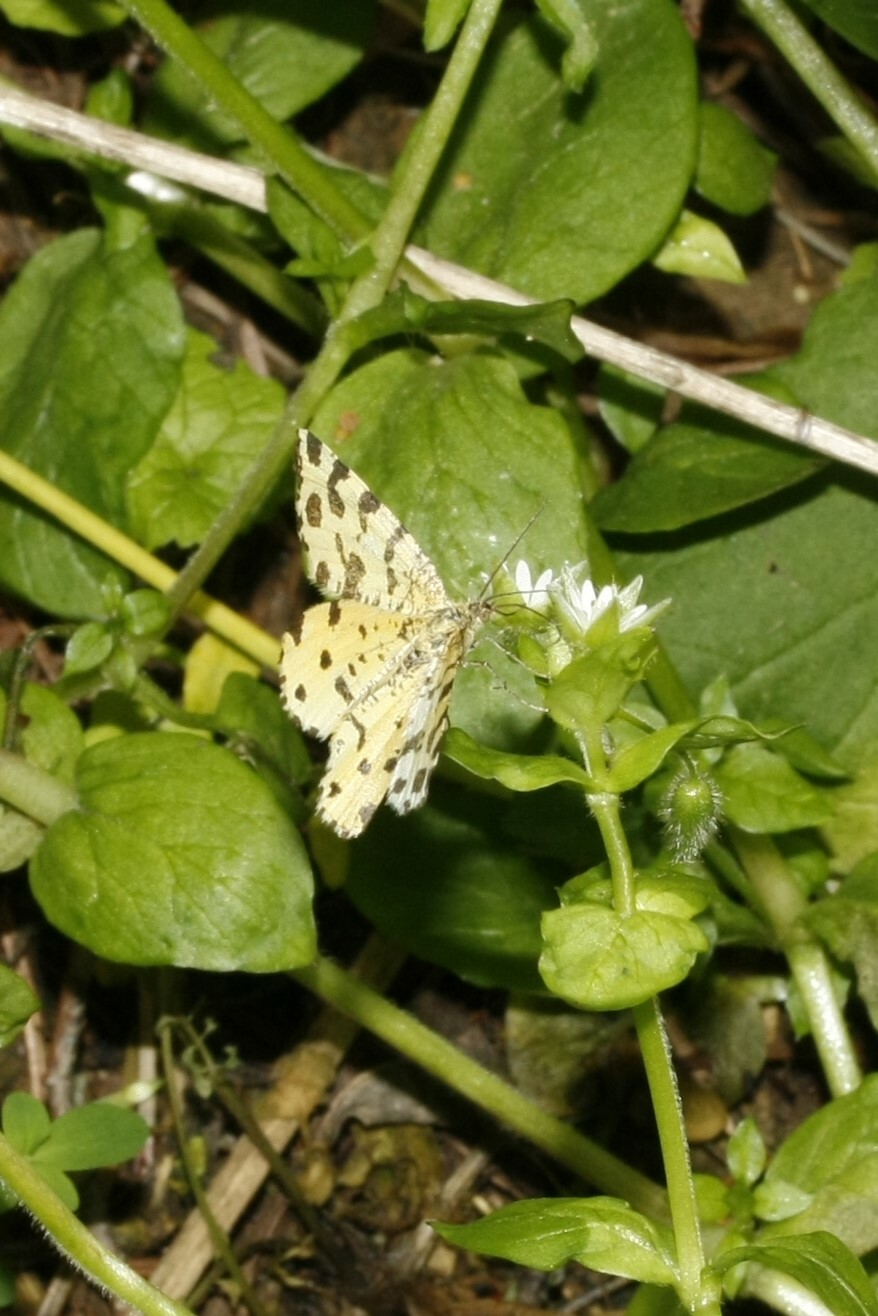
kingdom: Animalia
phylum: Arthropoda
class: Insecta
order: Lepidoptera
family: Geometridae
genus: Pseudopanthera
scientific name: Pseudopanthera macularia
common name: Speckled yellow
